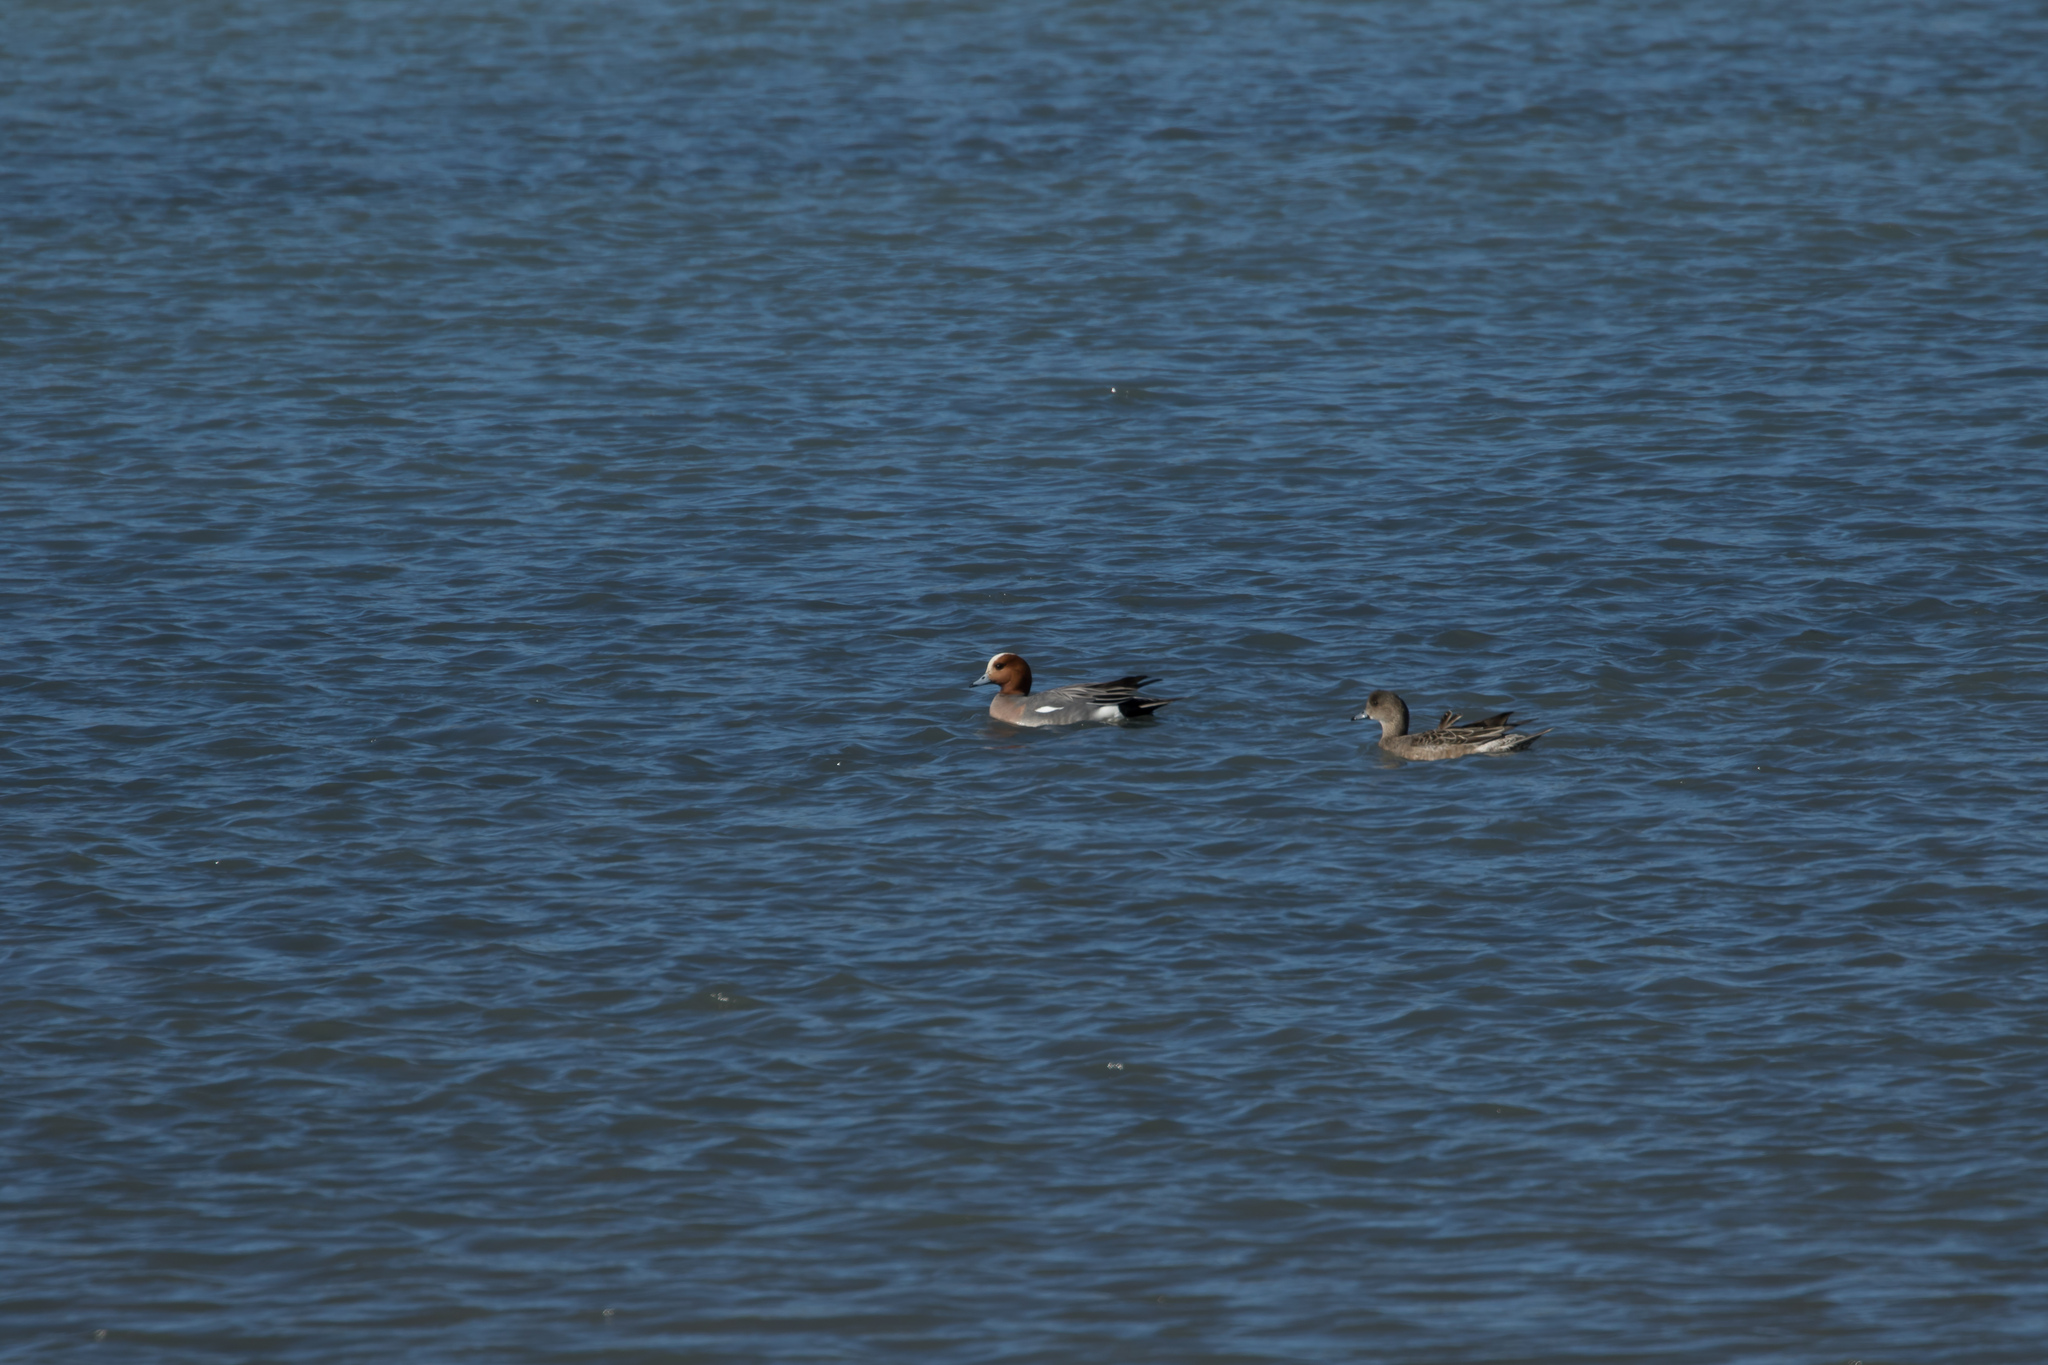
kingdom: Animalia
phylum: Chordata
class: Aves
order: Anseriformes
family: Anatidae
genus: Mareca
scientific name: Mareca penelope
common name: Eurasian wigeon
